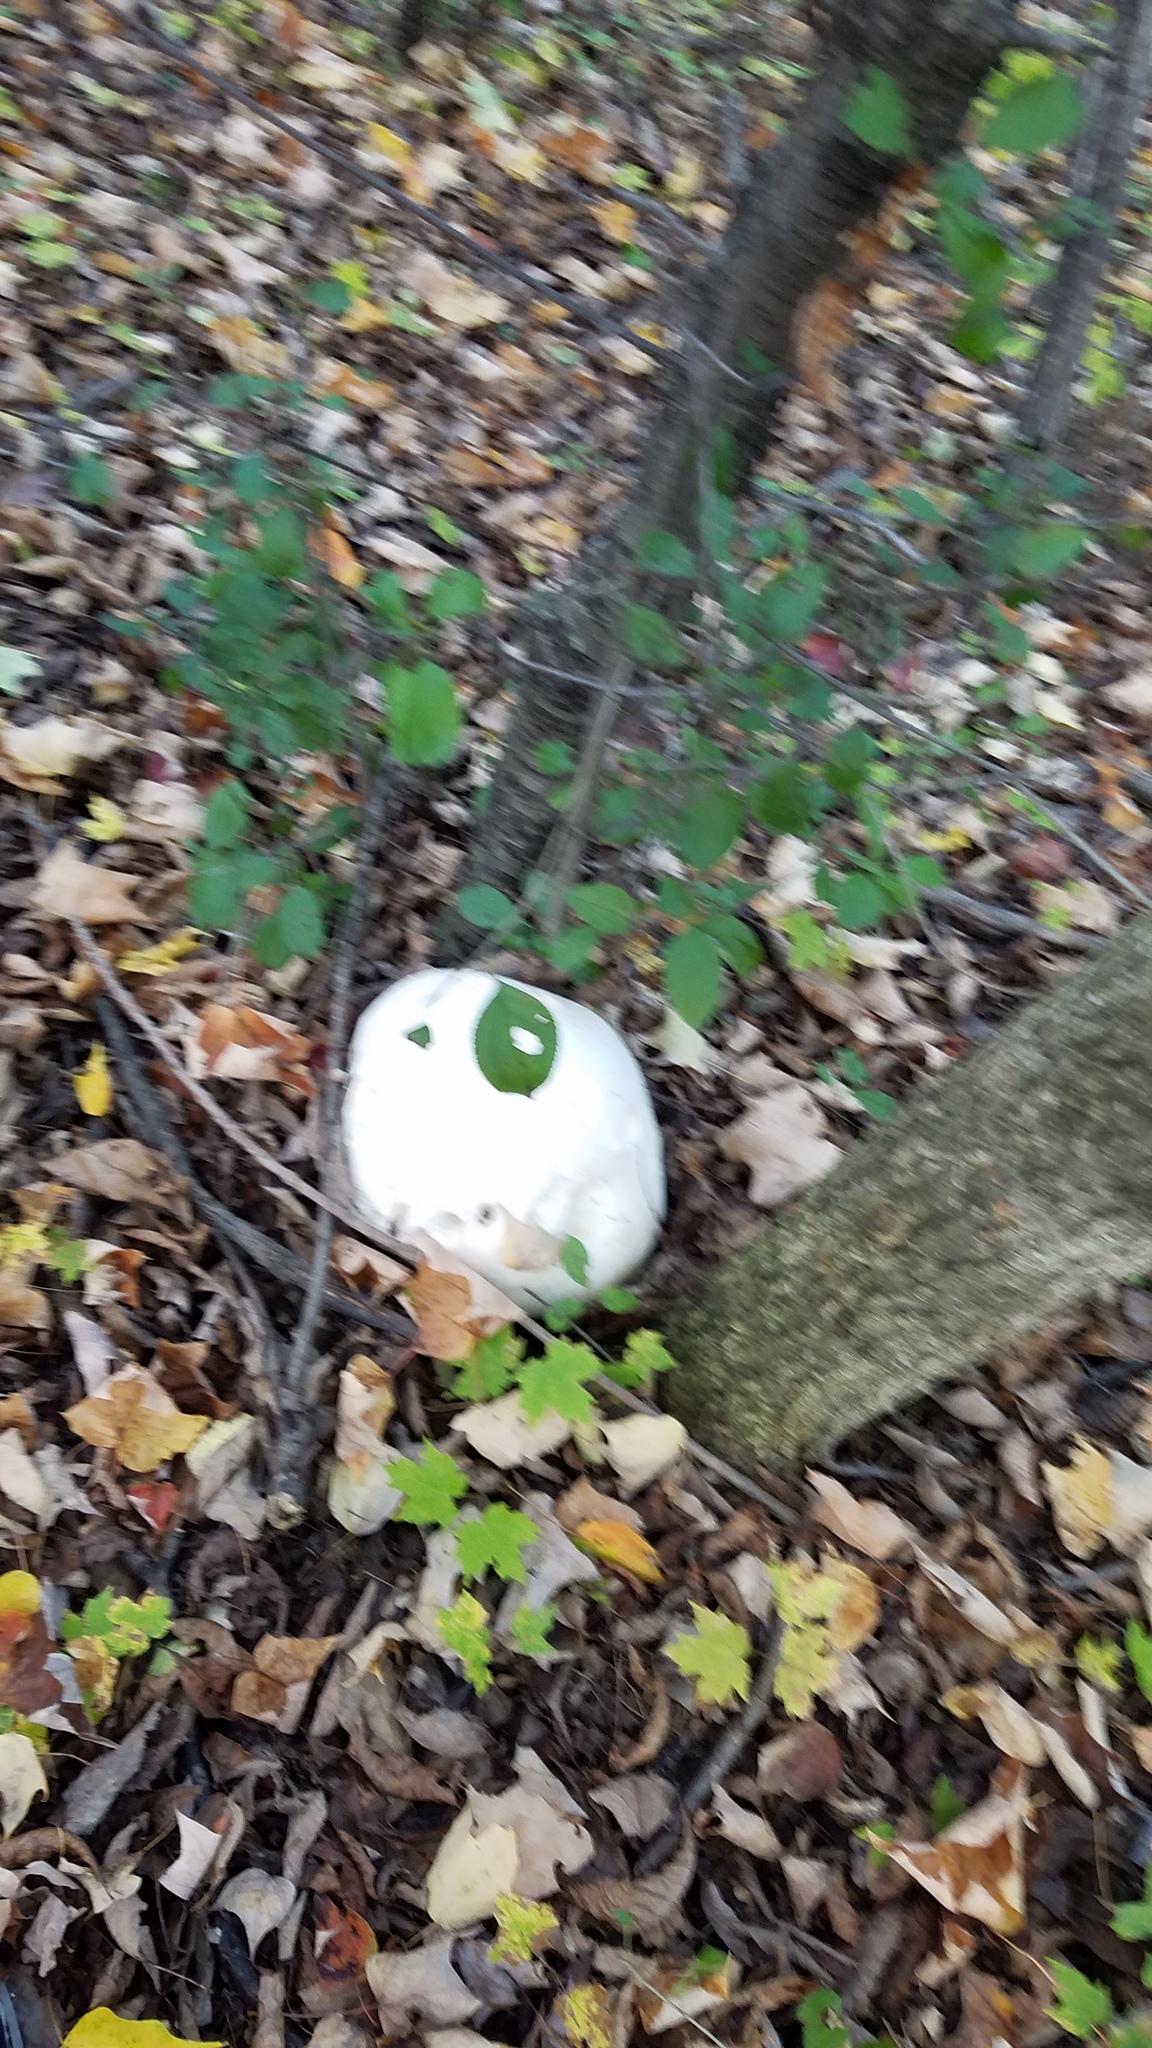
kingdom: Fungi
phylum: Basidiomycota
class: Agaricomycetes
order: Agaricales
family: Lycoperdaceae
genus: Calvatia
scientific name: Calvatia gigantea
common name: Giant puffball
